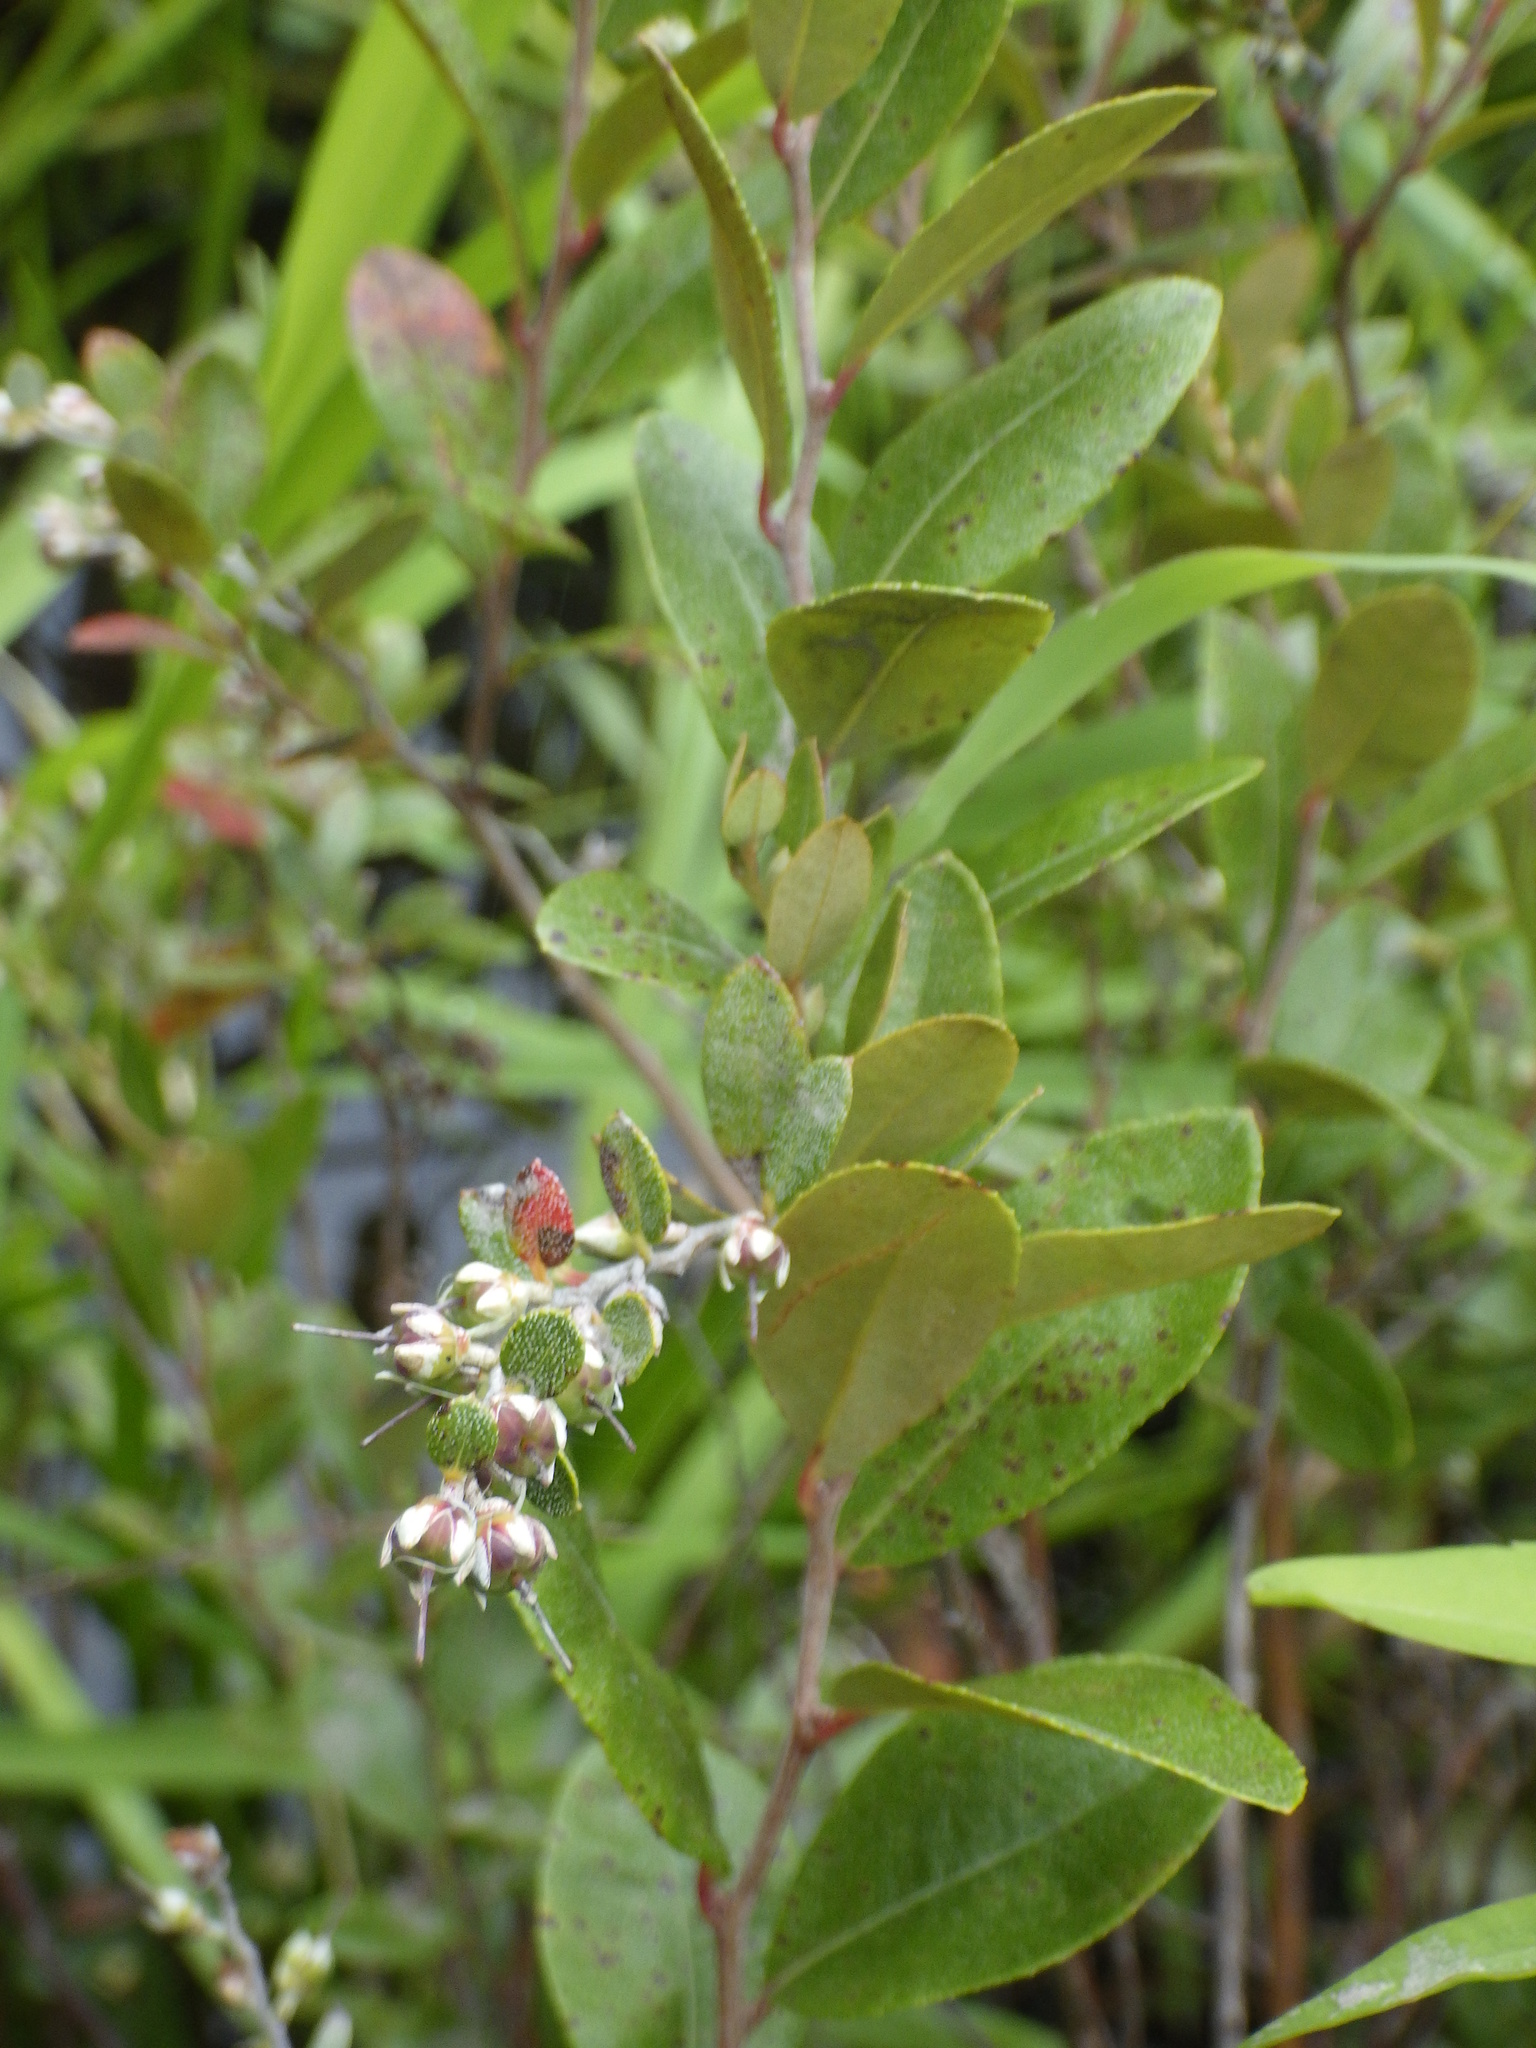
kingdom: Plantae
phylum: Tracheophyta
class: Magnoliopsida
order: Ericales
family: Ericaceae
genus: Chamaedaphne
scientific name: Chamaedaphne calyculata
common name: Leatherleaf
